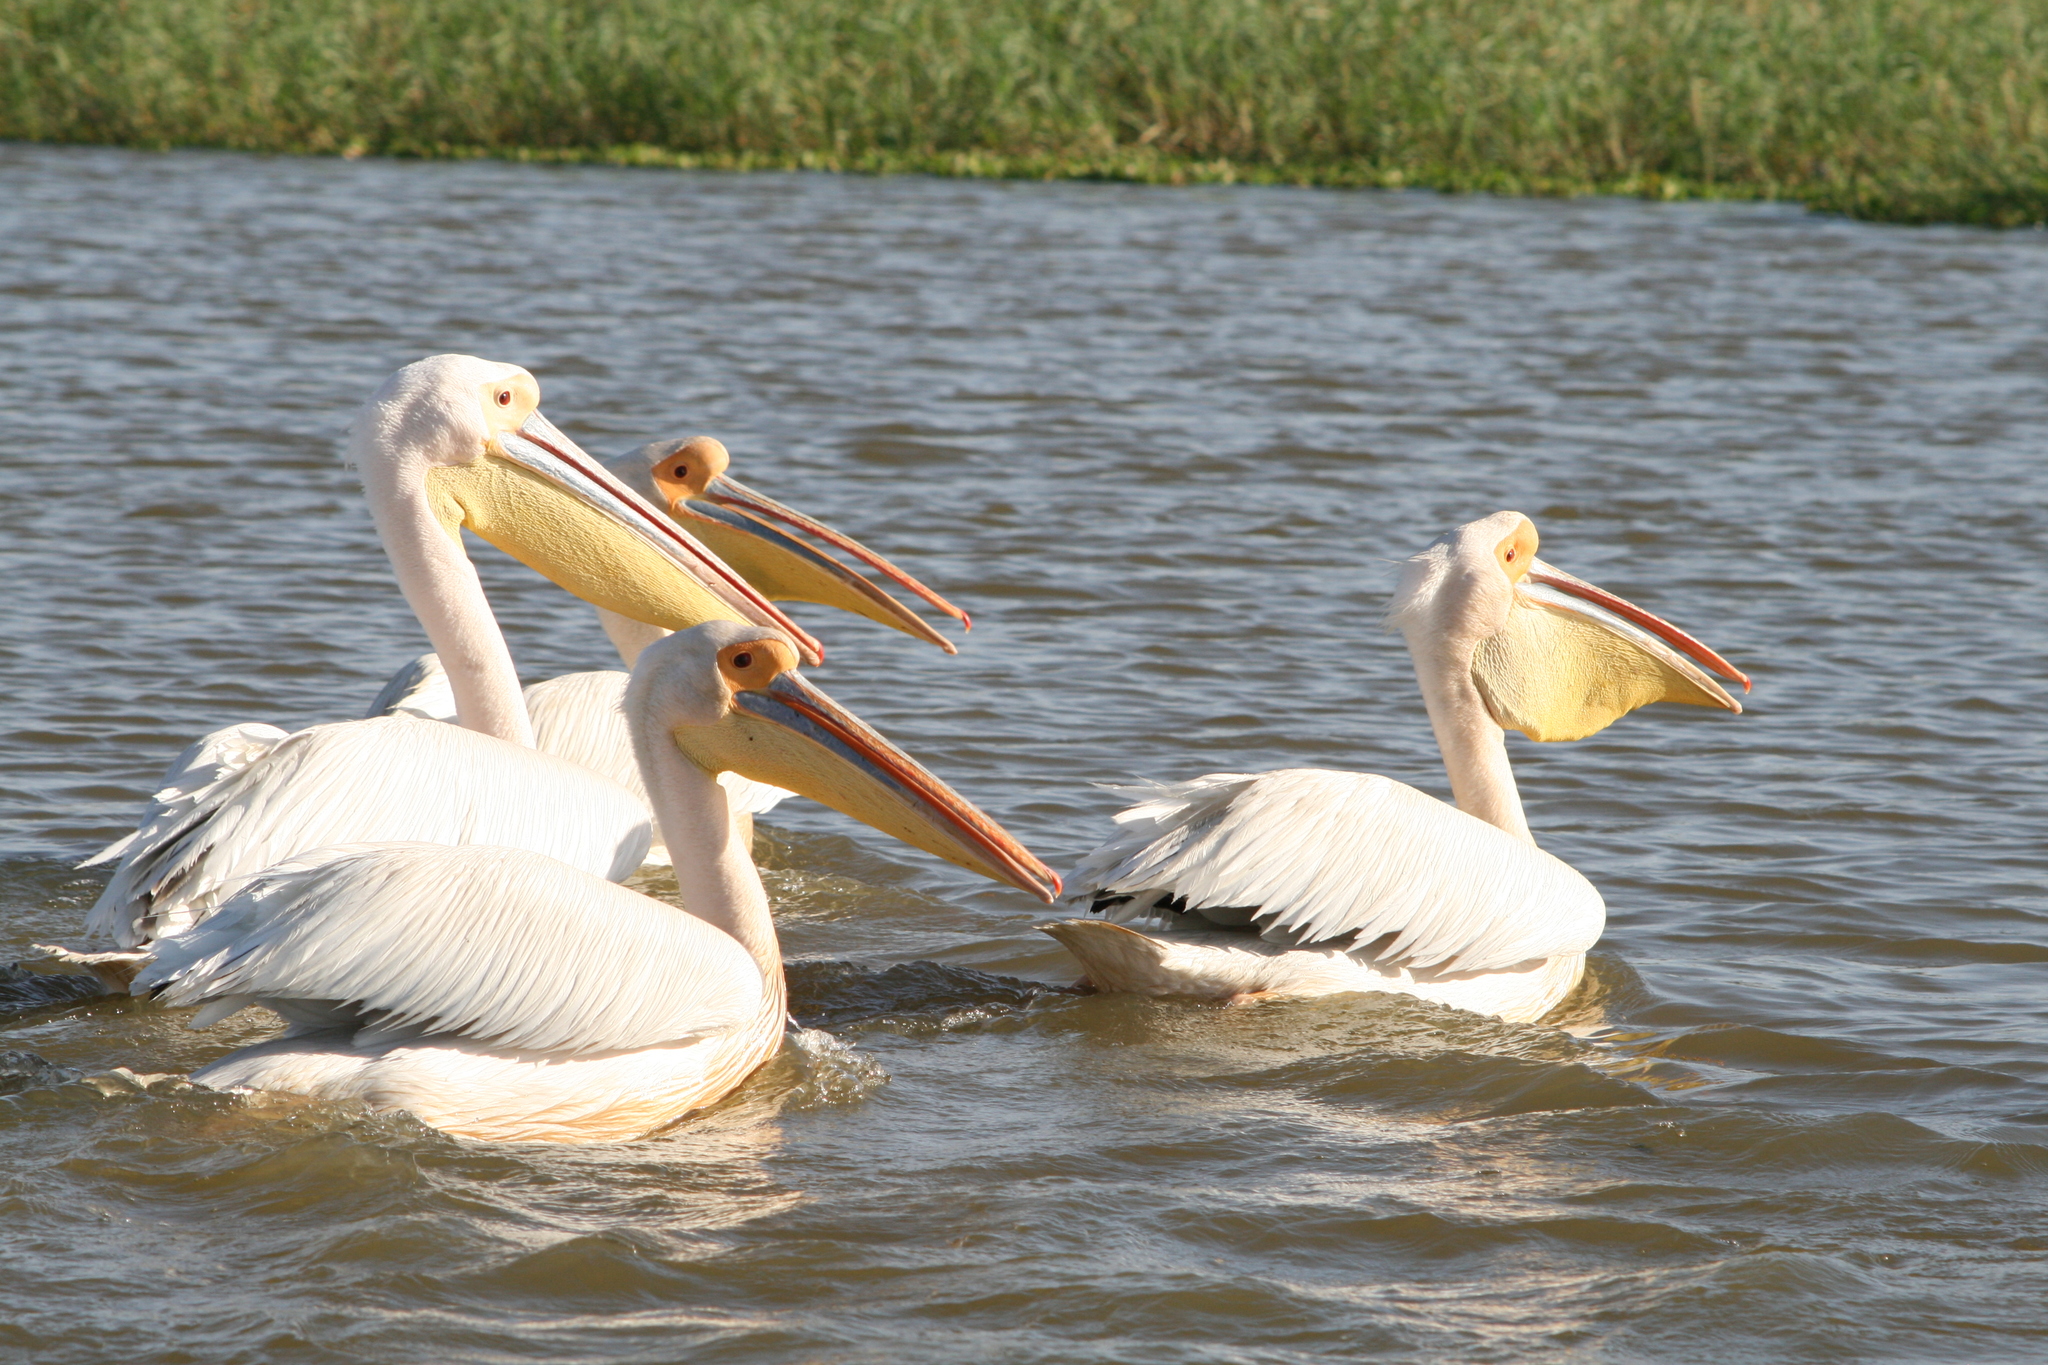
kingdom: Animalia
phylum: Chordata
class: Aves
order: Pelecaniformes
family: Pelecanidae
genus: Pelecanus
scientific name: Pelecanus onocrotalus
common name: Great white pelican
